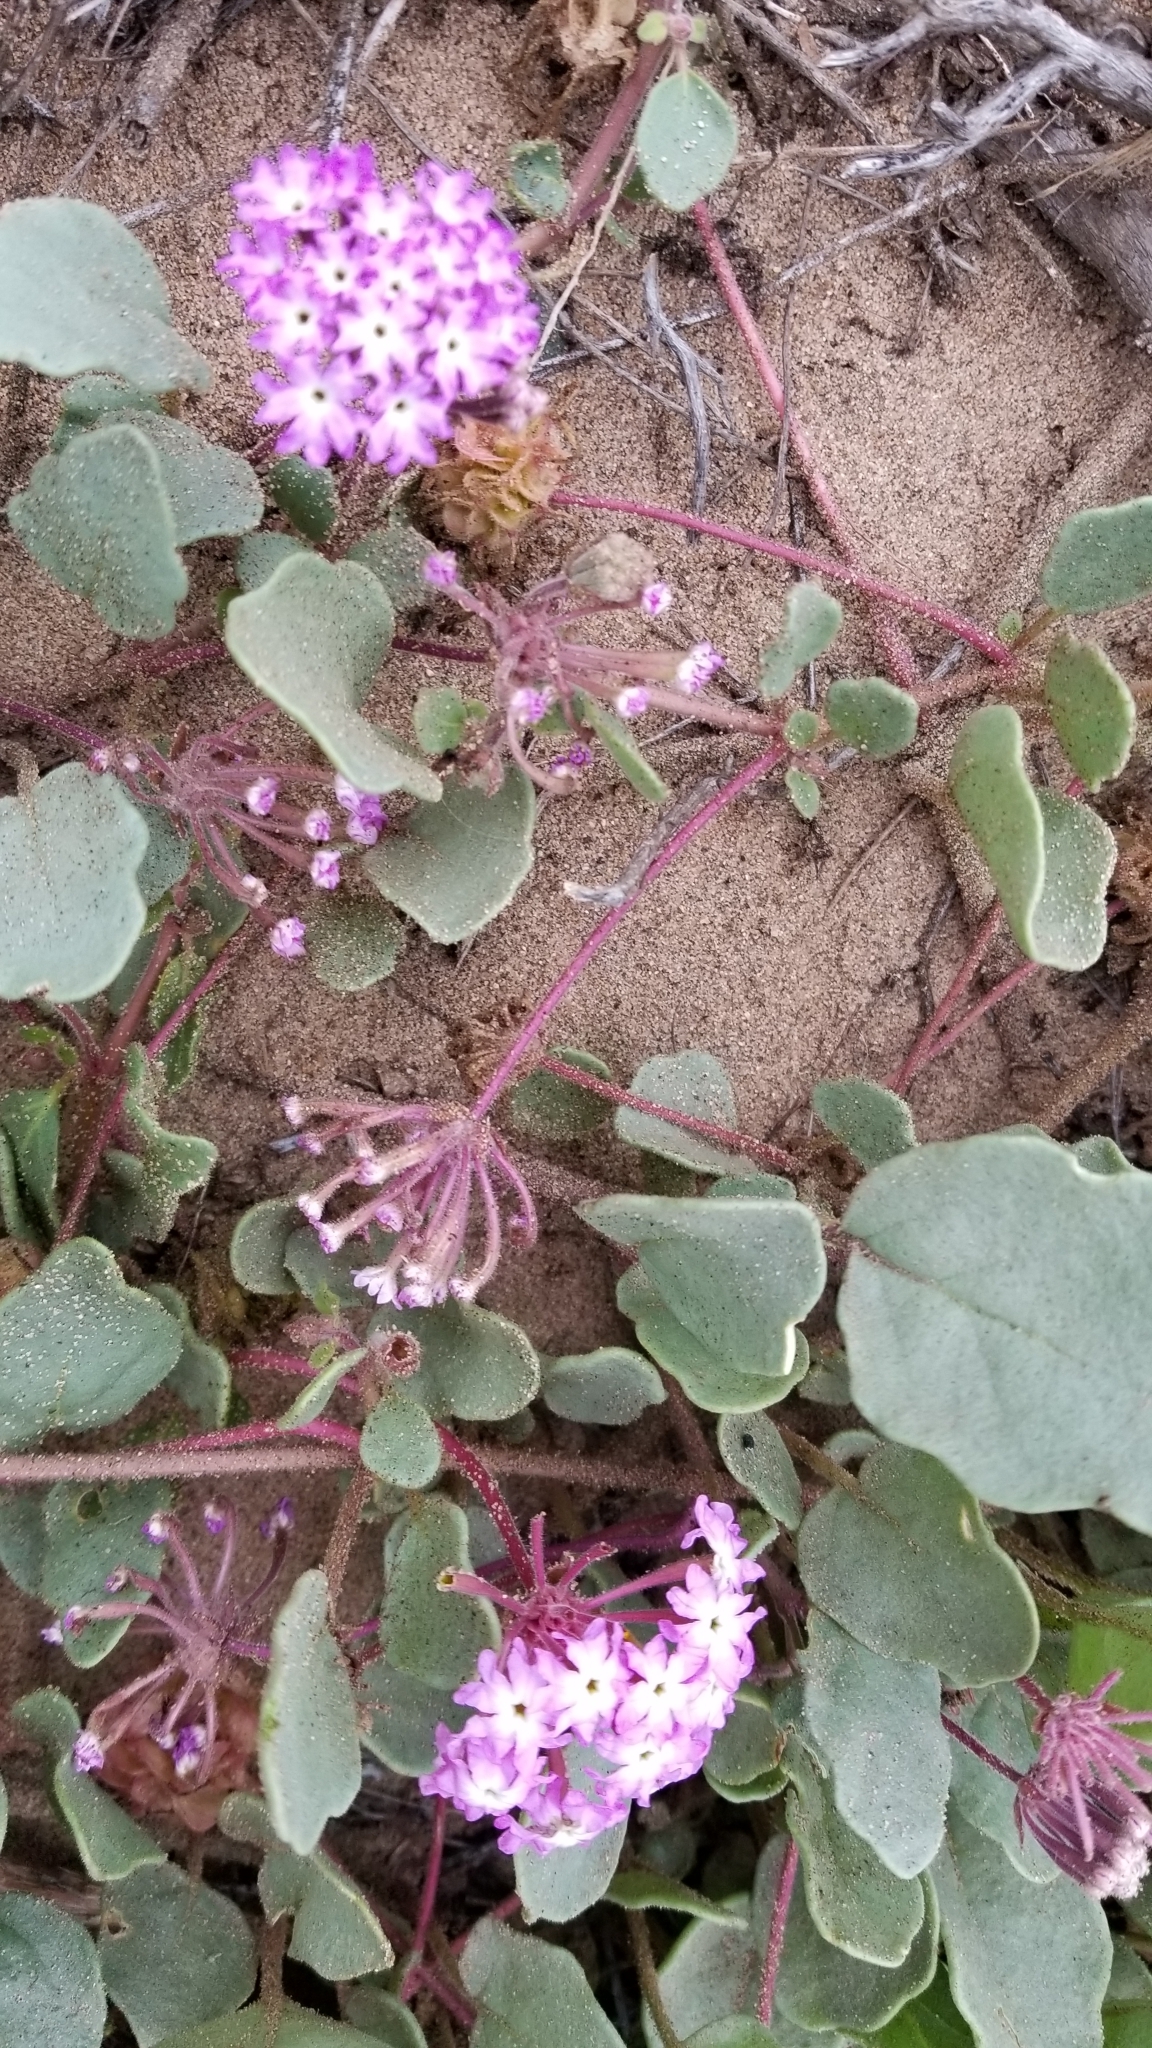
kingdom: Plantae
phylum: Tracheophyta
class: Magnoliopsida
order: Caryophyllales
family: Nyctaginaceae
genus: Abronia
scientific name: Abronia umbellata
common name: Sand-verbena
